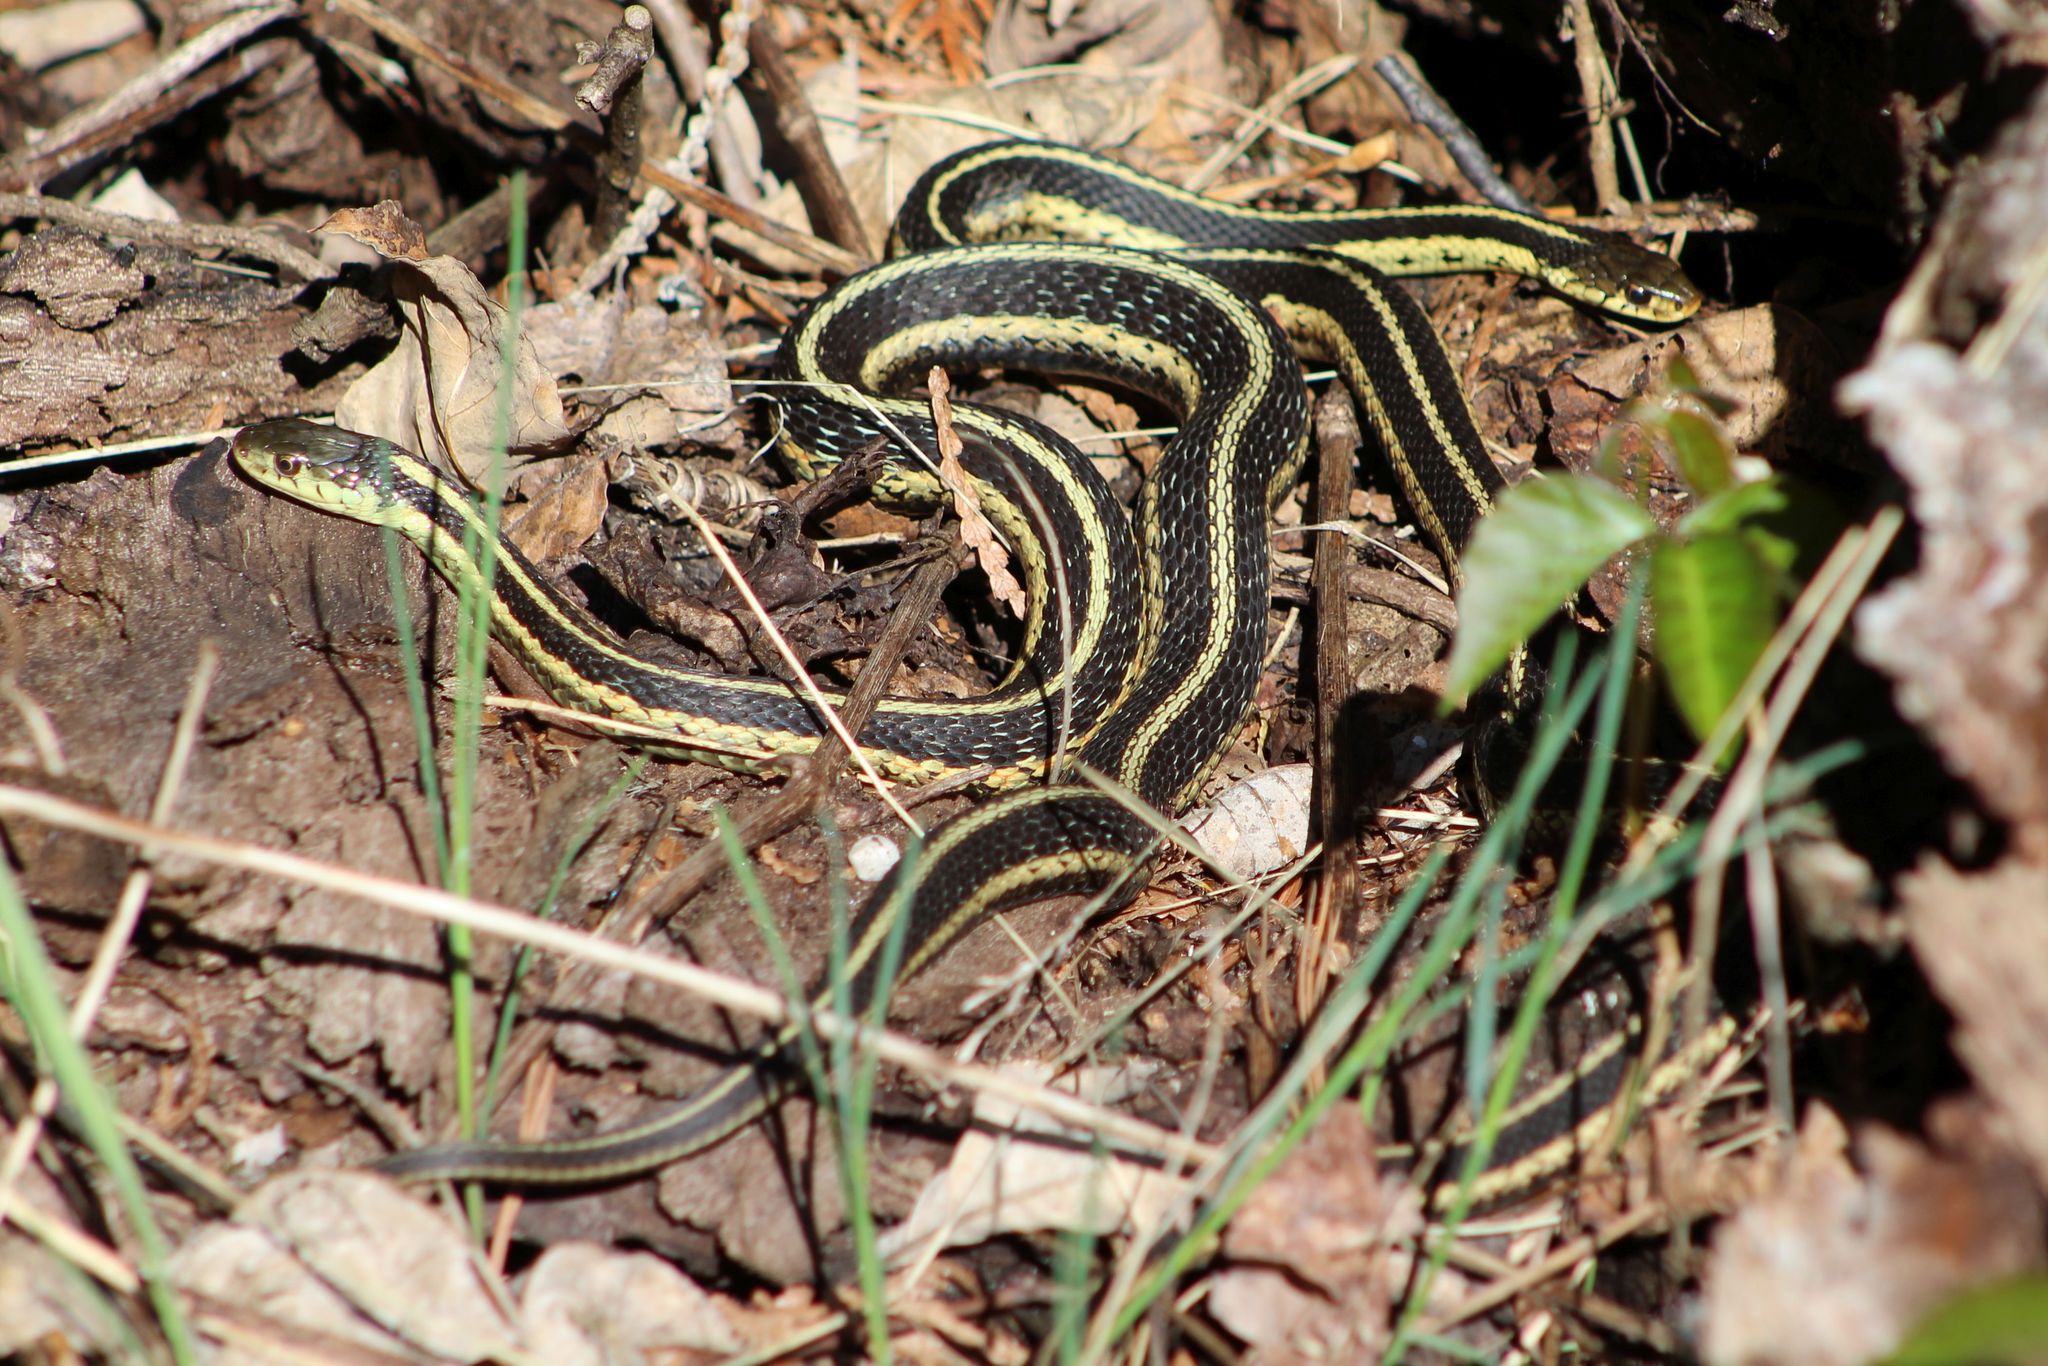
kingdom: Animalia
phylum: Chordata
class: Squamata
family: Colubridae
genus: Thamnophis
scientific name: Thamnophis sirtalis
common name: Common garter snake
